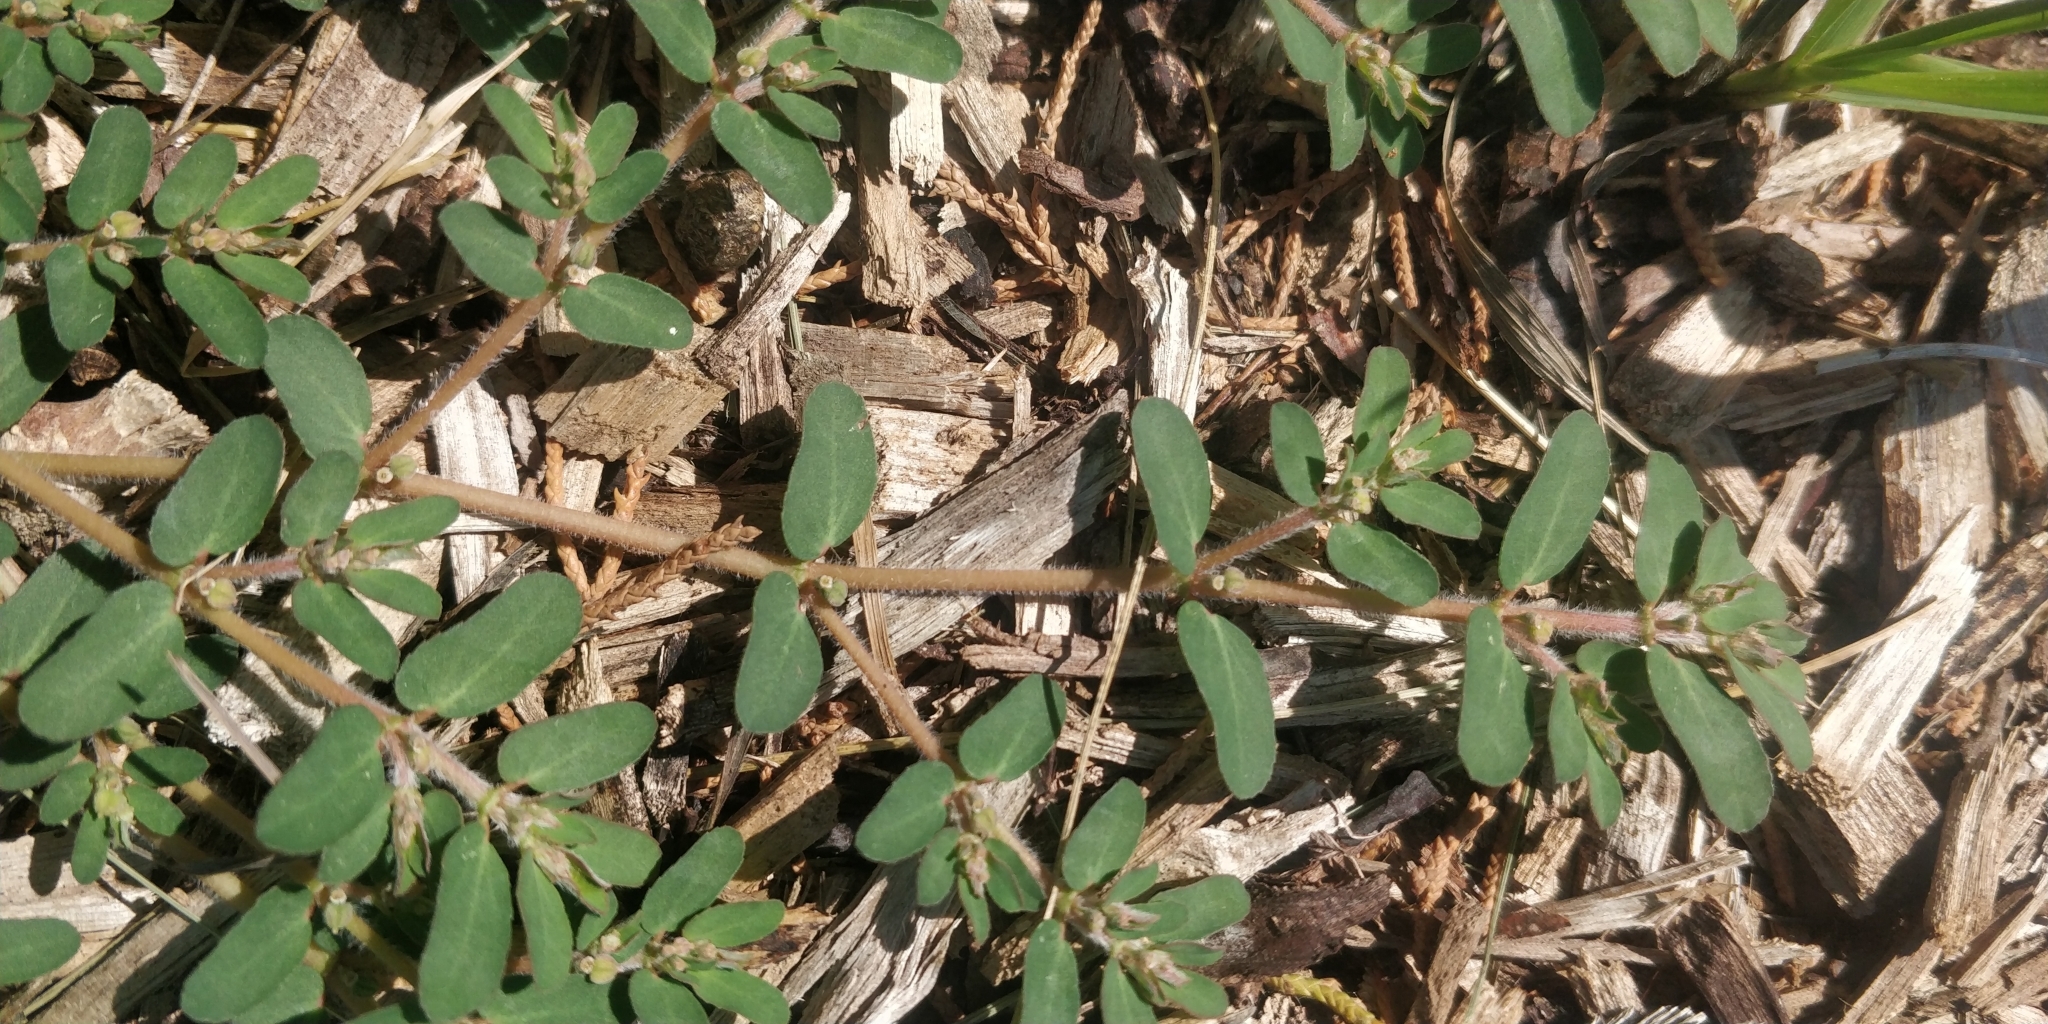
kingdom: Plantae
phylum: Tracheophyta
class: Magnoliopsida
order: Malpighiales
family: Euphorbiaceae
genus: Euphorbia
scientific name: Euphorbia maculata
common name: Spotted spurge
